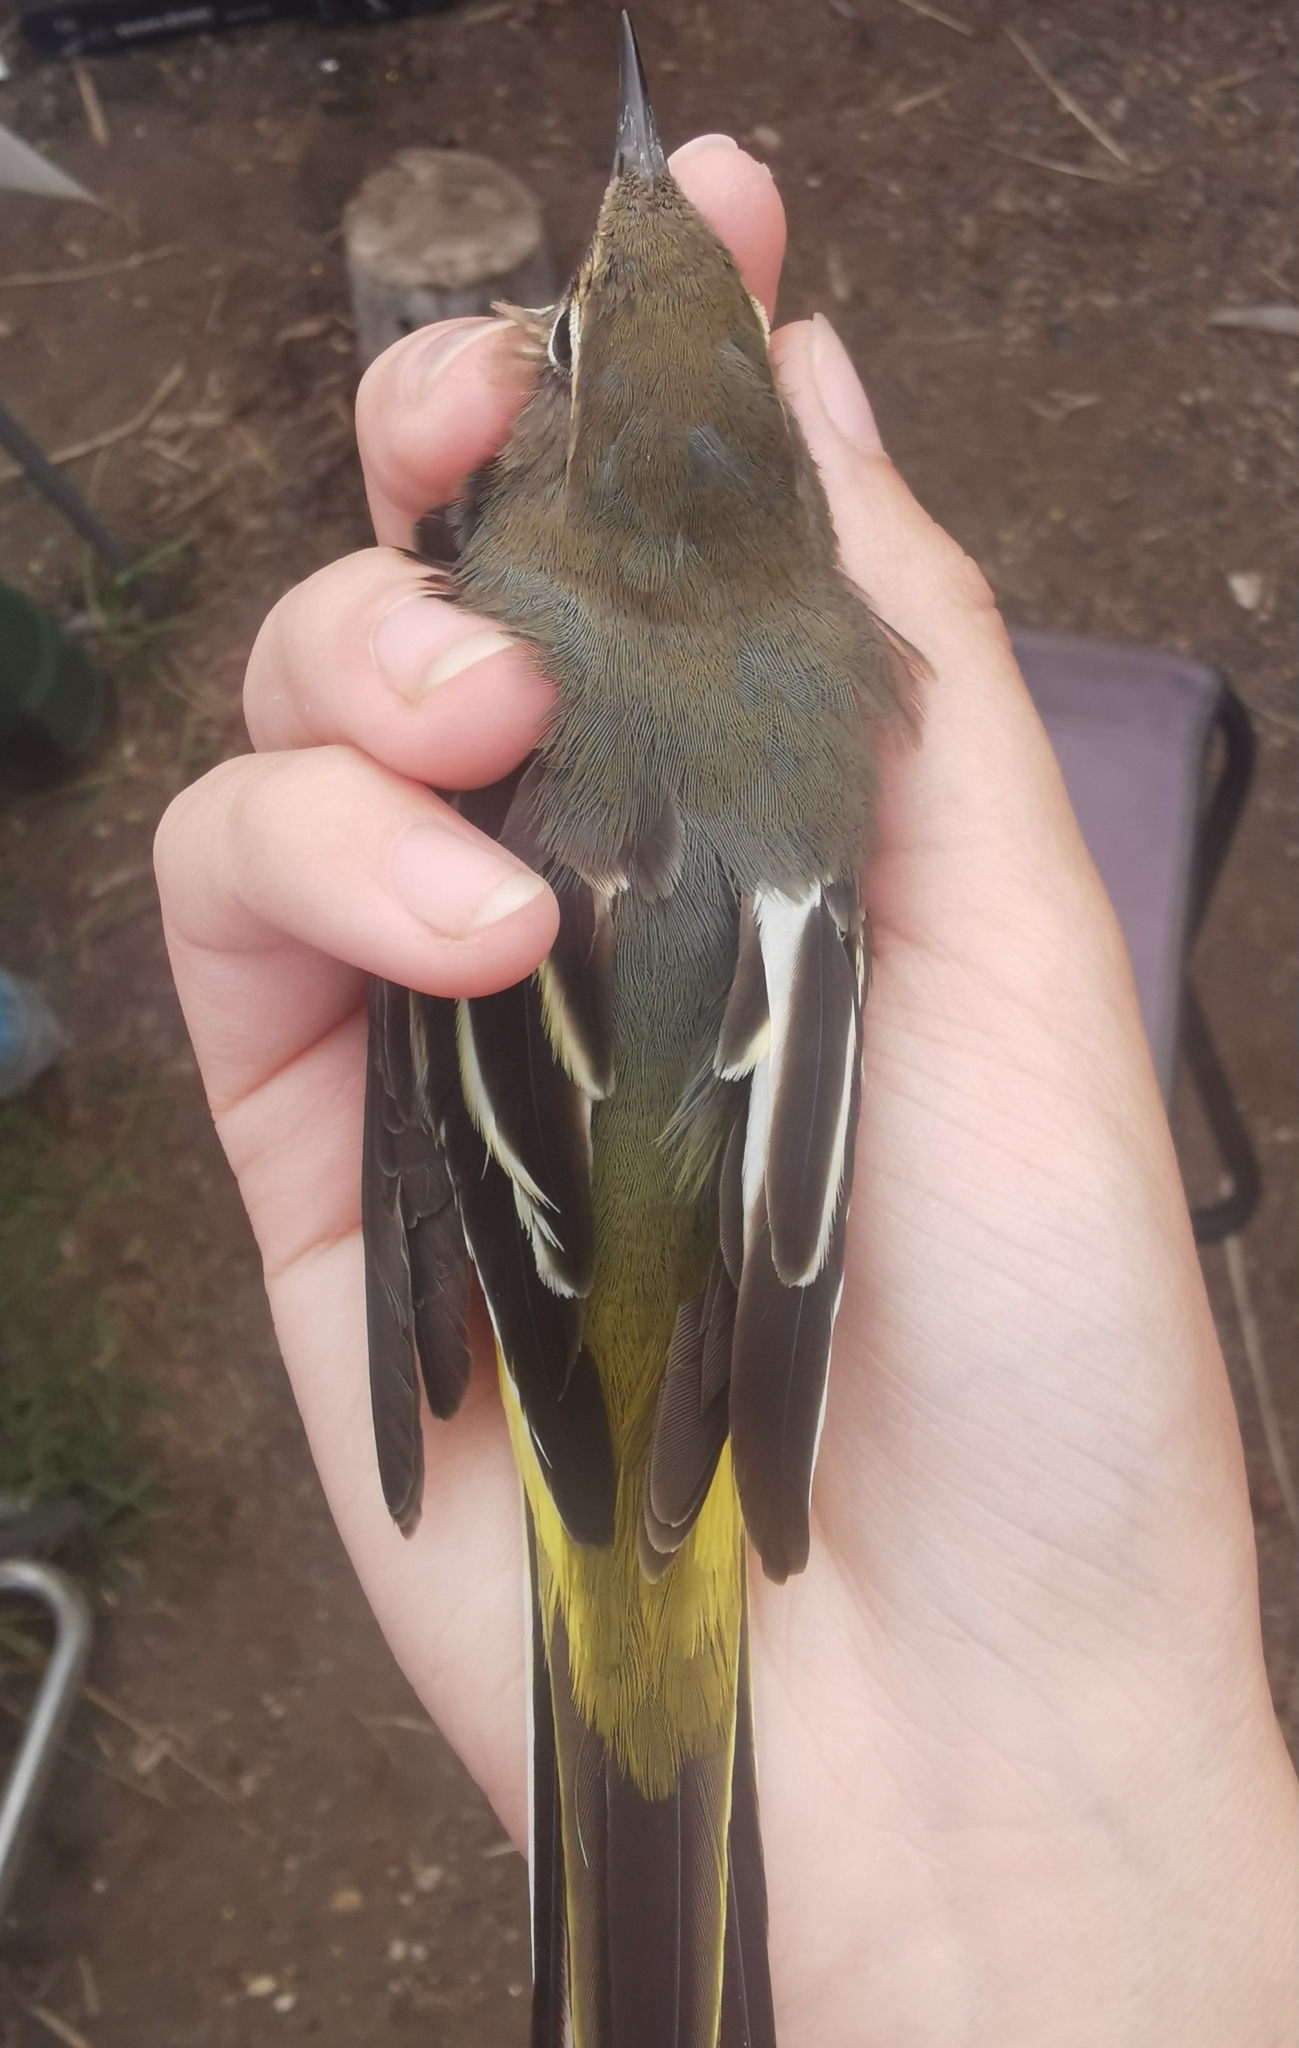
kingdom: Animalia
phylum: Chordata
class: Aves
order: Passeriformes
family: Motacillidae
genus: Motacilla
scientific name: Motacilla cinerea
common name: Grey wagtail
